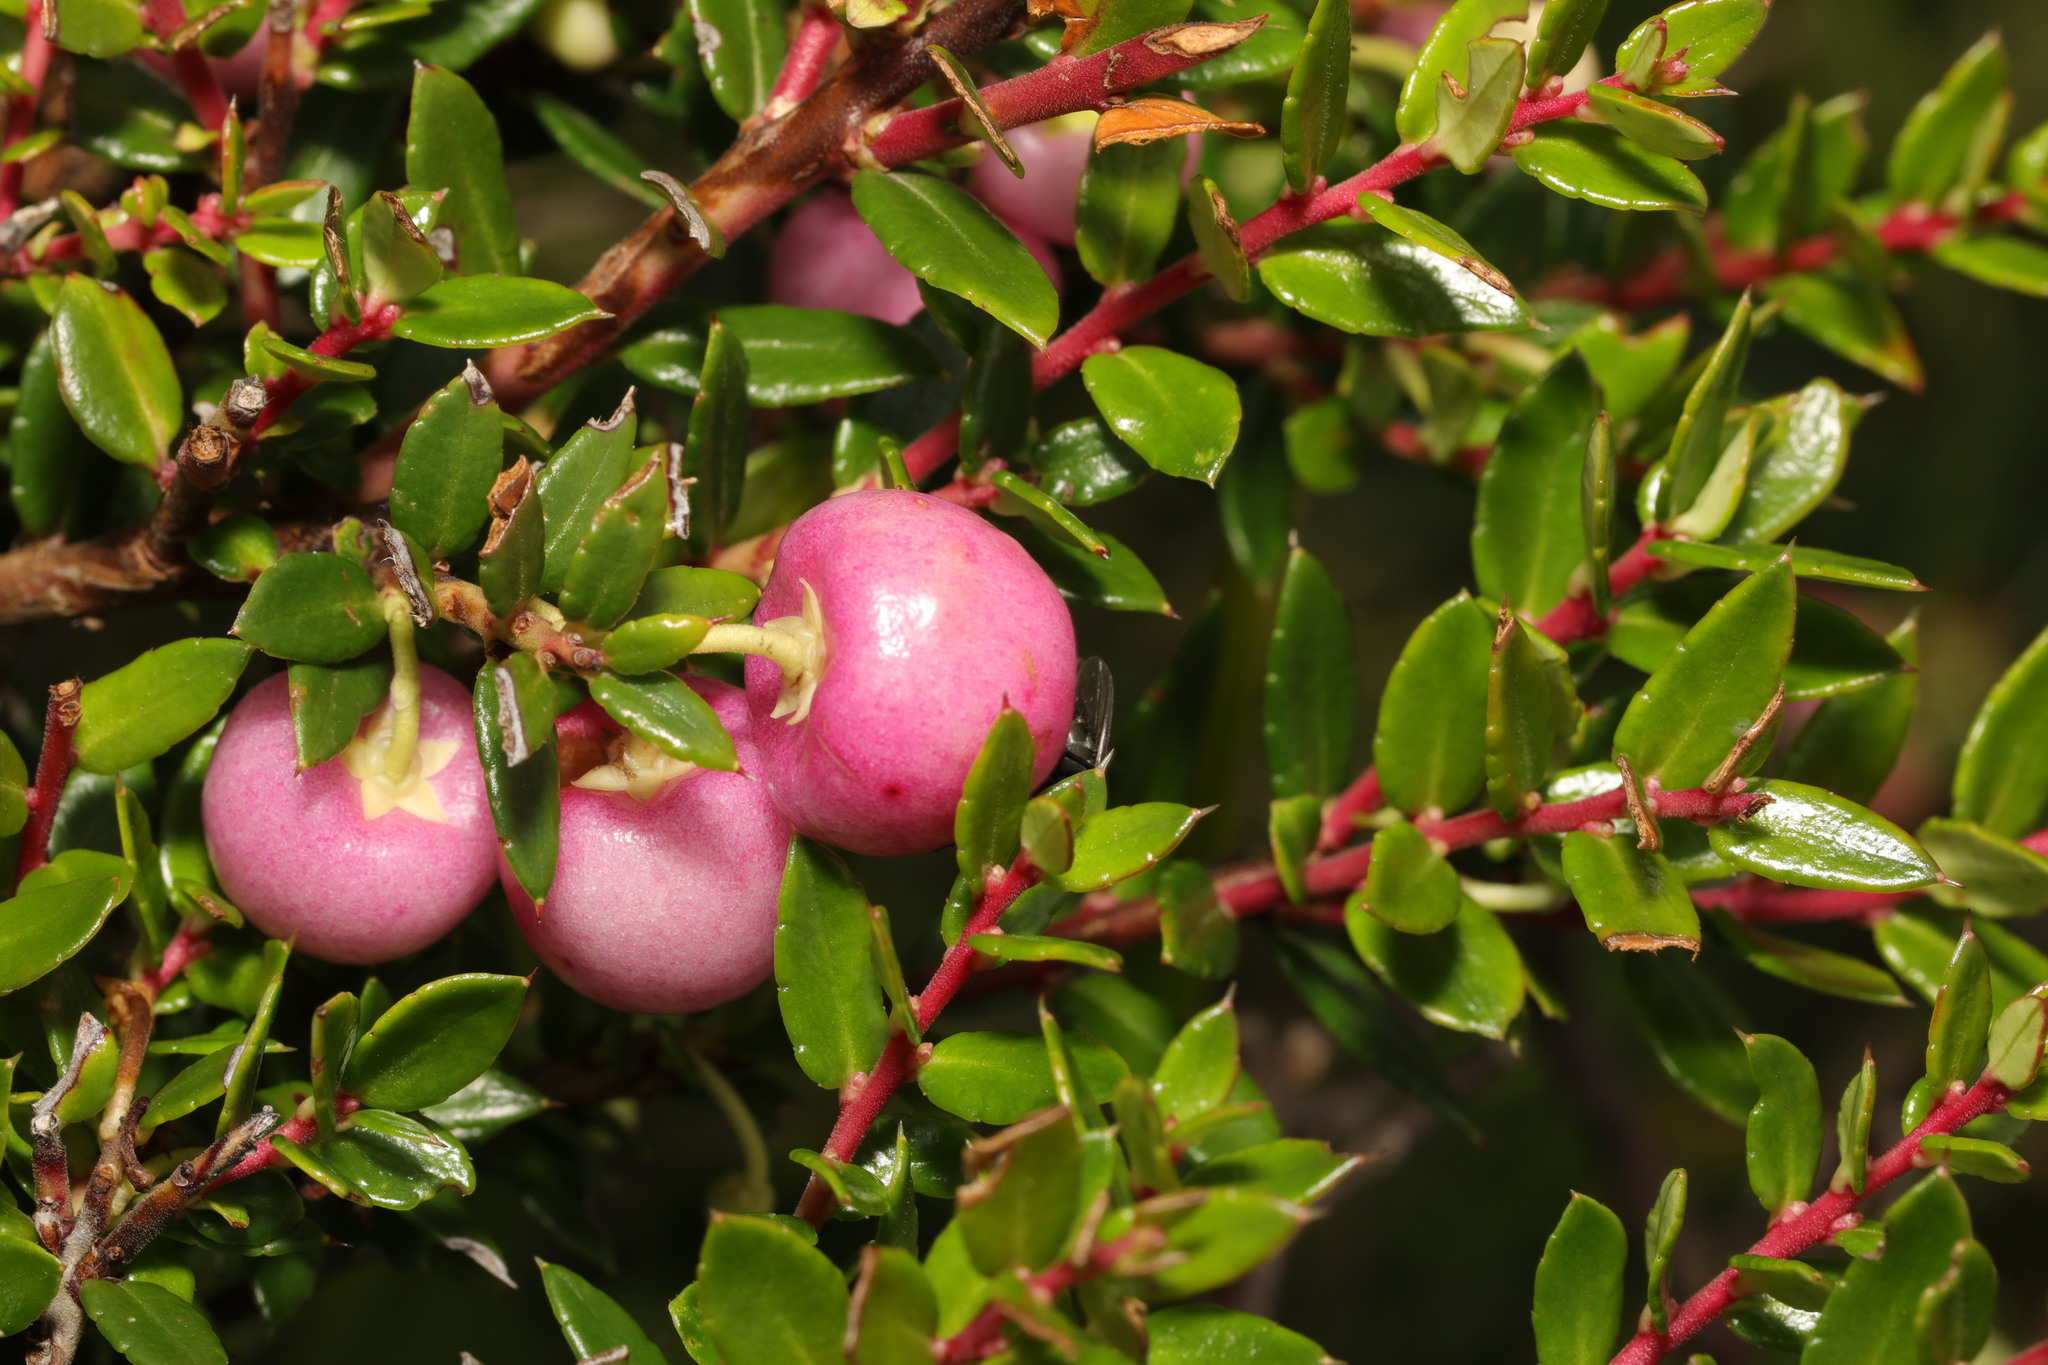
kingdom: Plantae
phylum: Tracheophyta
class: Magnoliopsida
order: Ericales
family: Ericaceae
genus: Gaultheria
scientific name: Gaultheria mucronata
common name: Prickly heath
